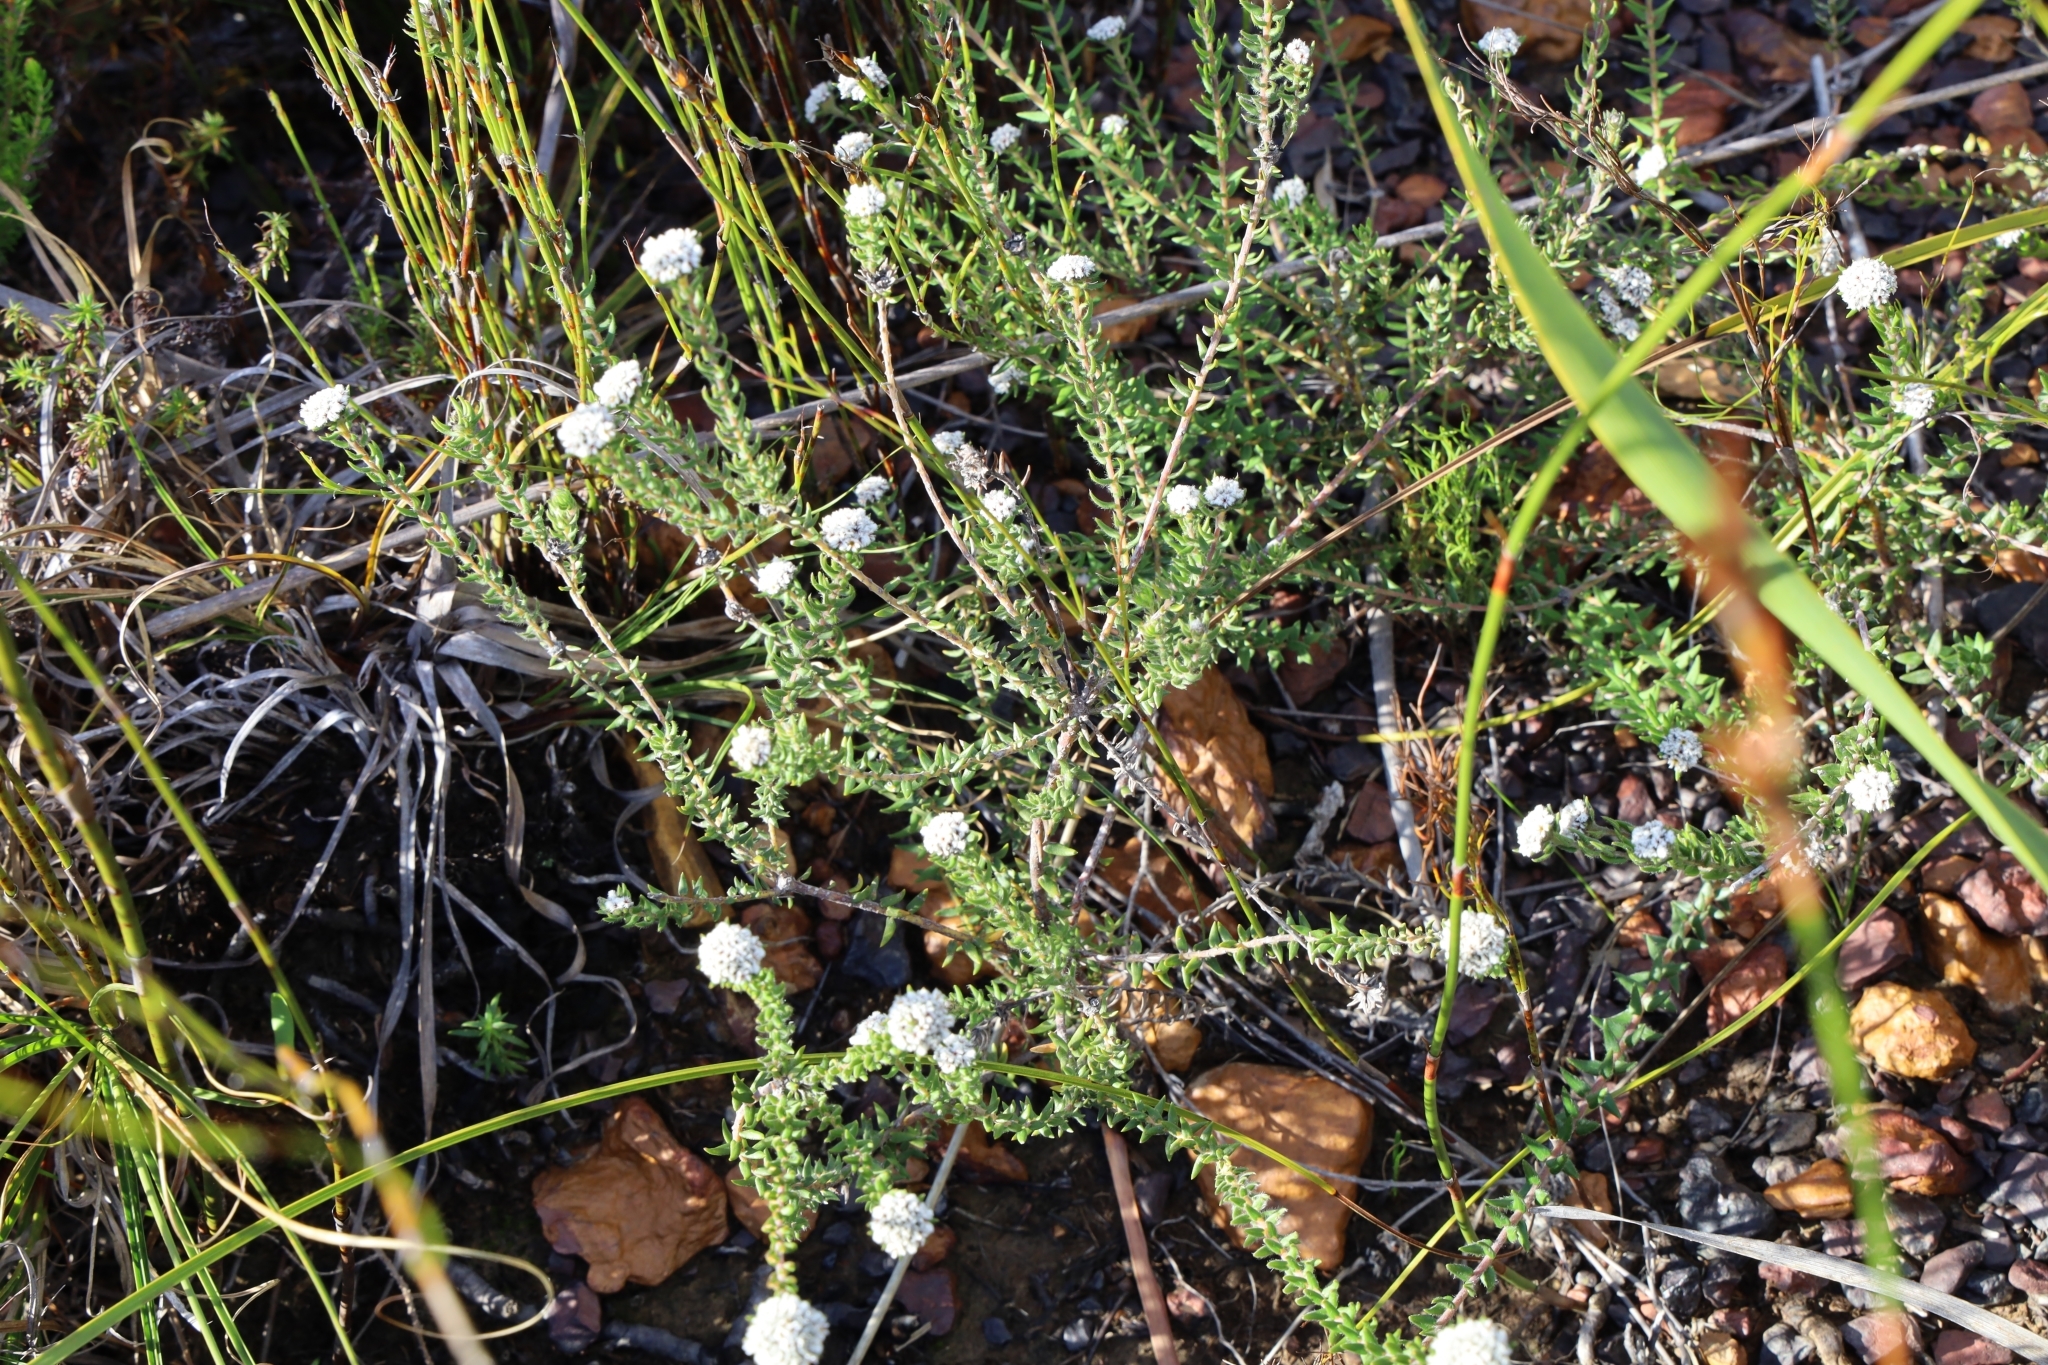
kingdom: Plantae
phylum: Tracheophyta
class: Magnoliopsida
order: Rosales
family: Rhamnaceae
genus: Phylica
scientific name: Phylica atrata
